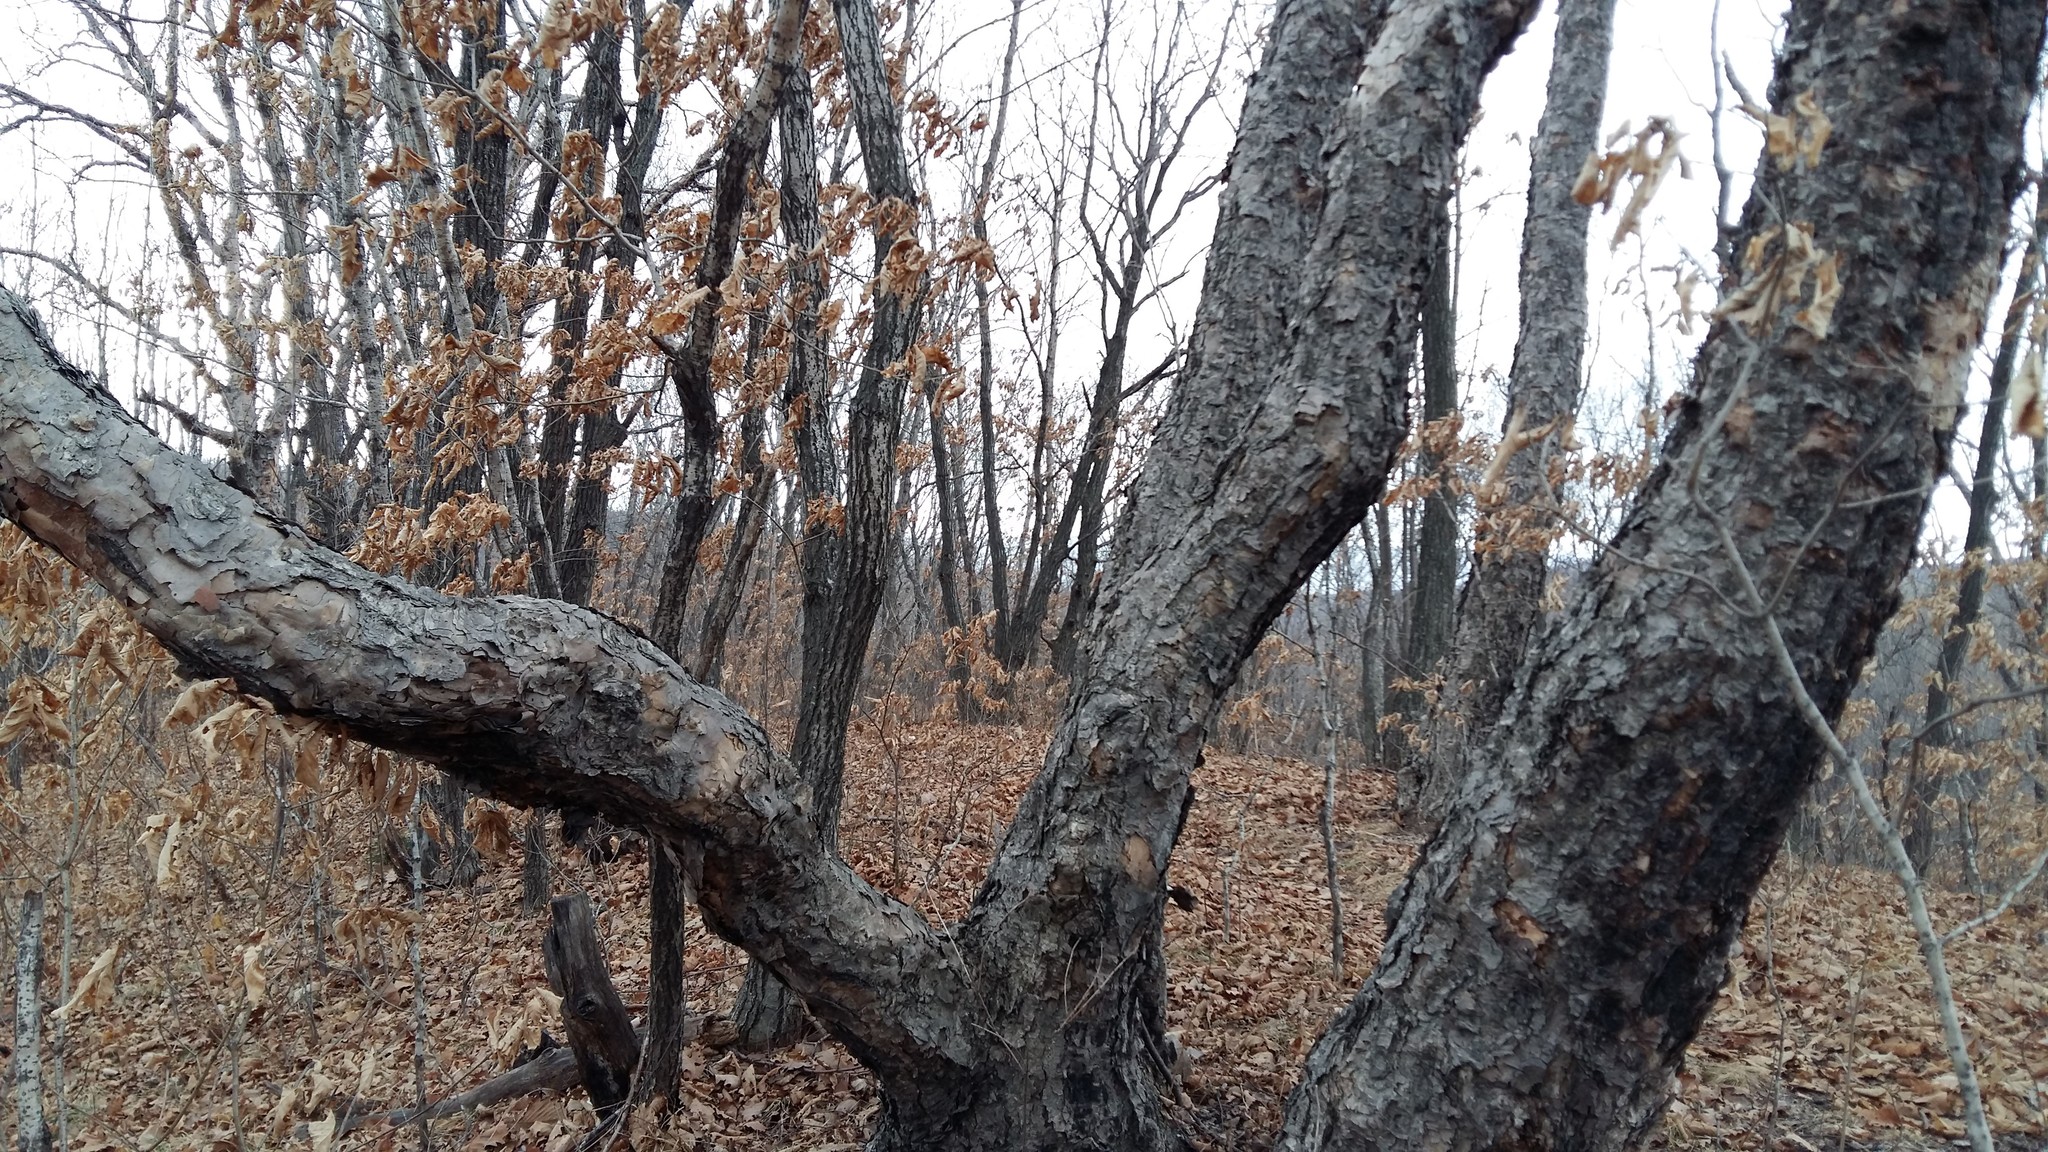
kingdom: Plantae
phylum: Tracheophyta
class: Magnoliopsida
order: Fagales
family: Betulaceae
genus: Betula
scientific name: Betula dauurica
